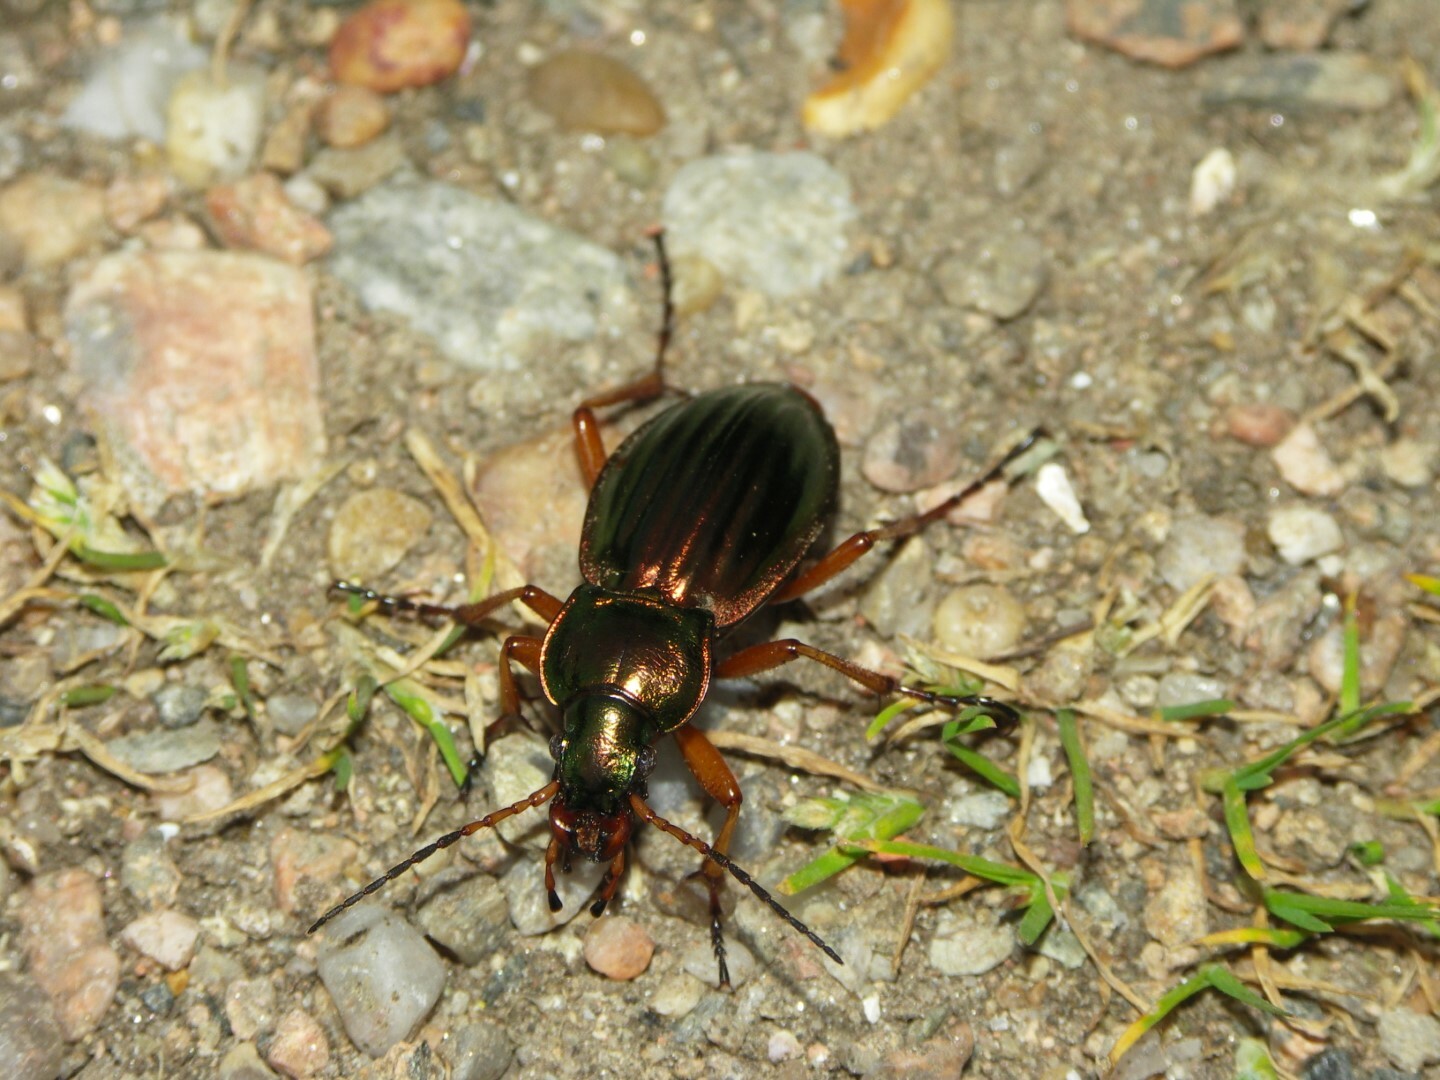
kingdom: Animalia
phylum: Arthropoda
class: Insecta
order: Coleoptera
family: Carabidae
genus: Carabus
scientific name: Carabus auratus
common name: Golden ground beetle
